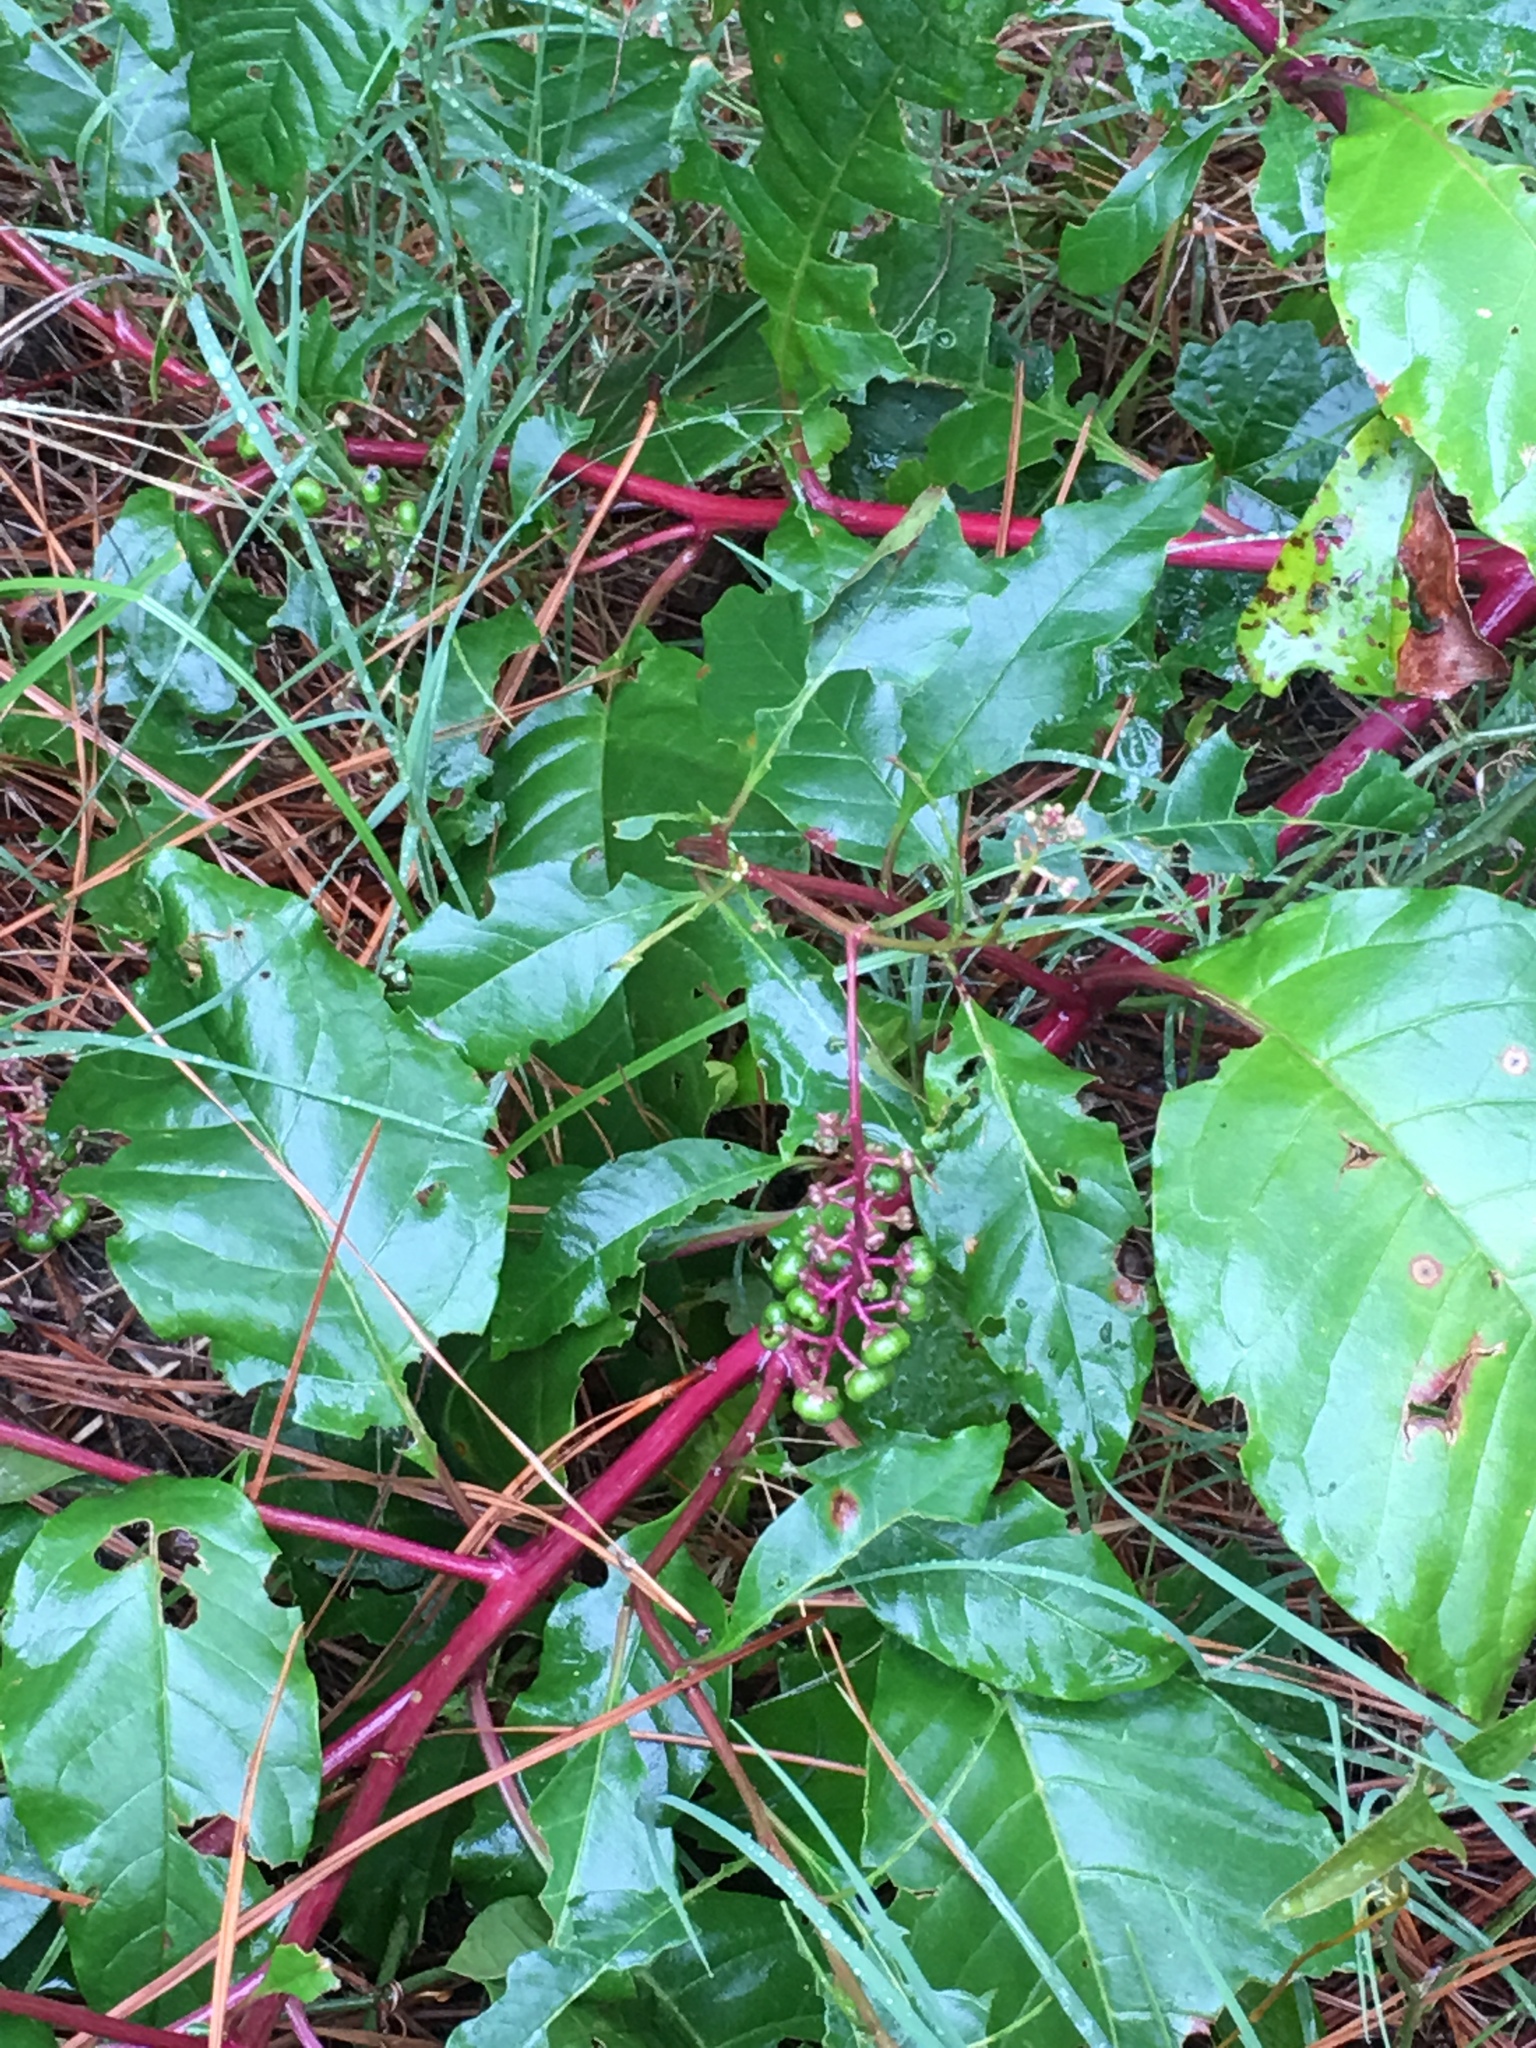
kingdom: Plantae
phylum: Tracheophyta
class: Magnoliopsida
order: Caryophyllales
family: Phytolaccaceae
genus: Phytolacca
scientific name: Phytolacca americana
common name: American pokeweed
